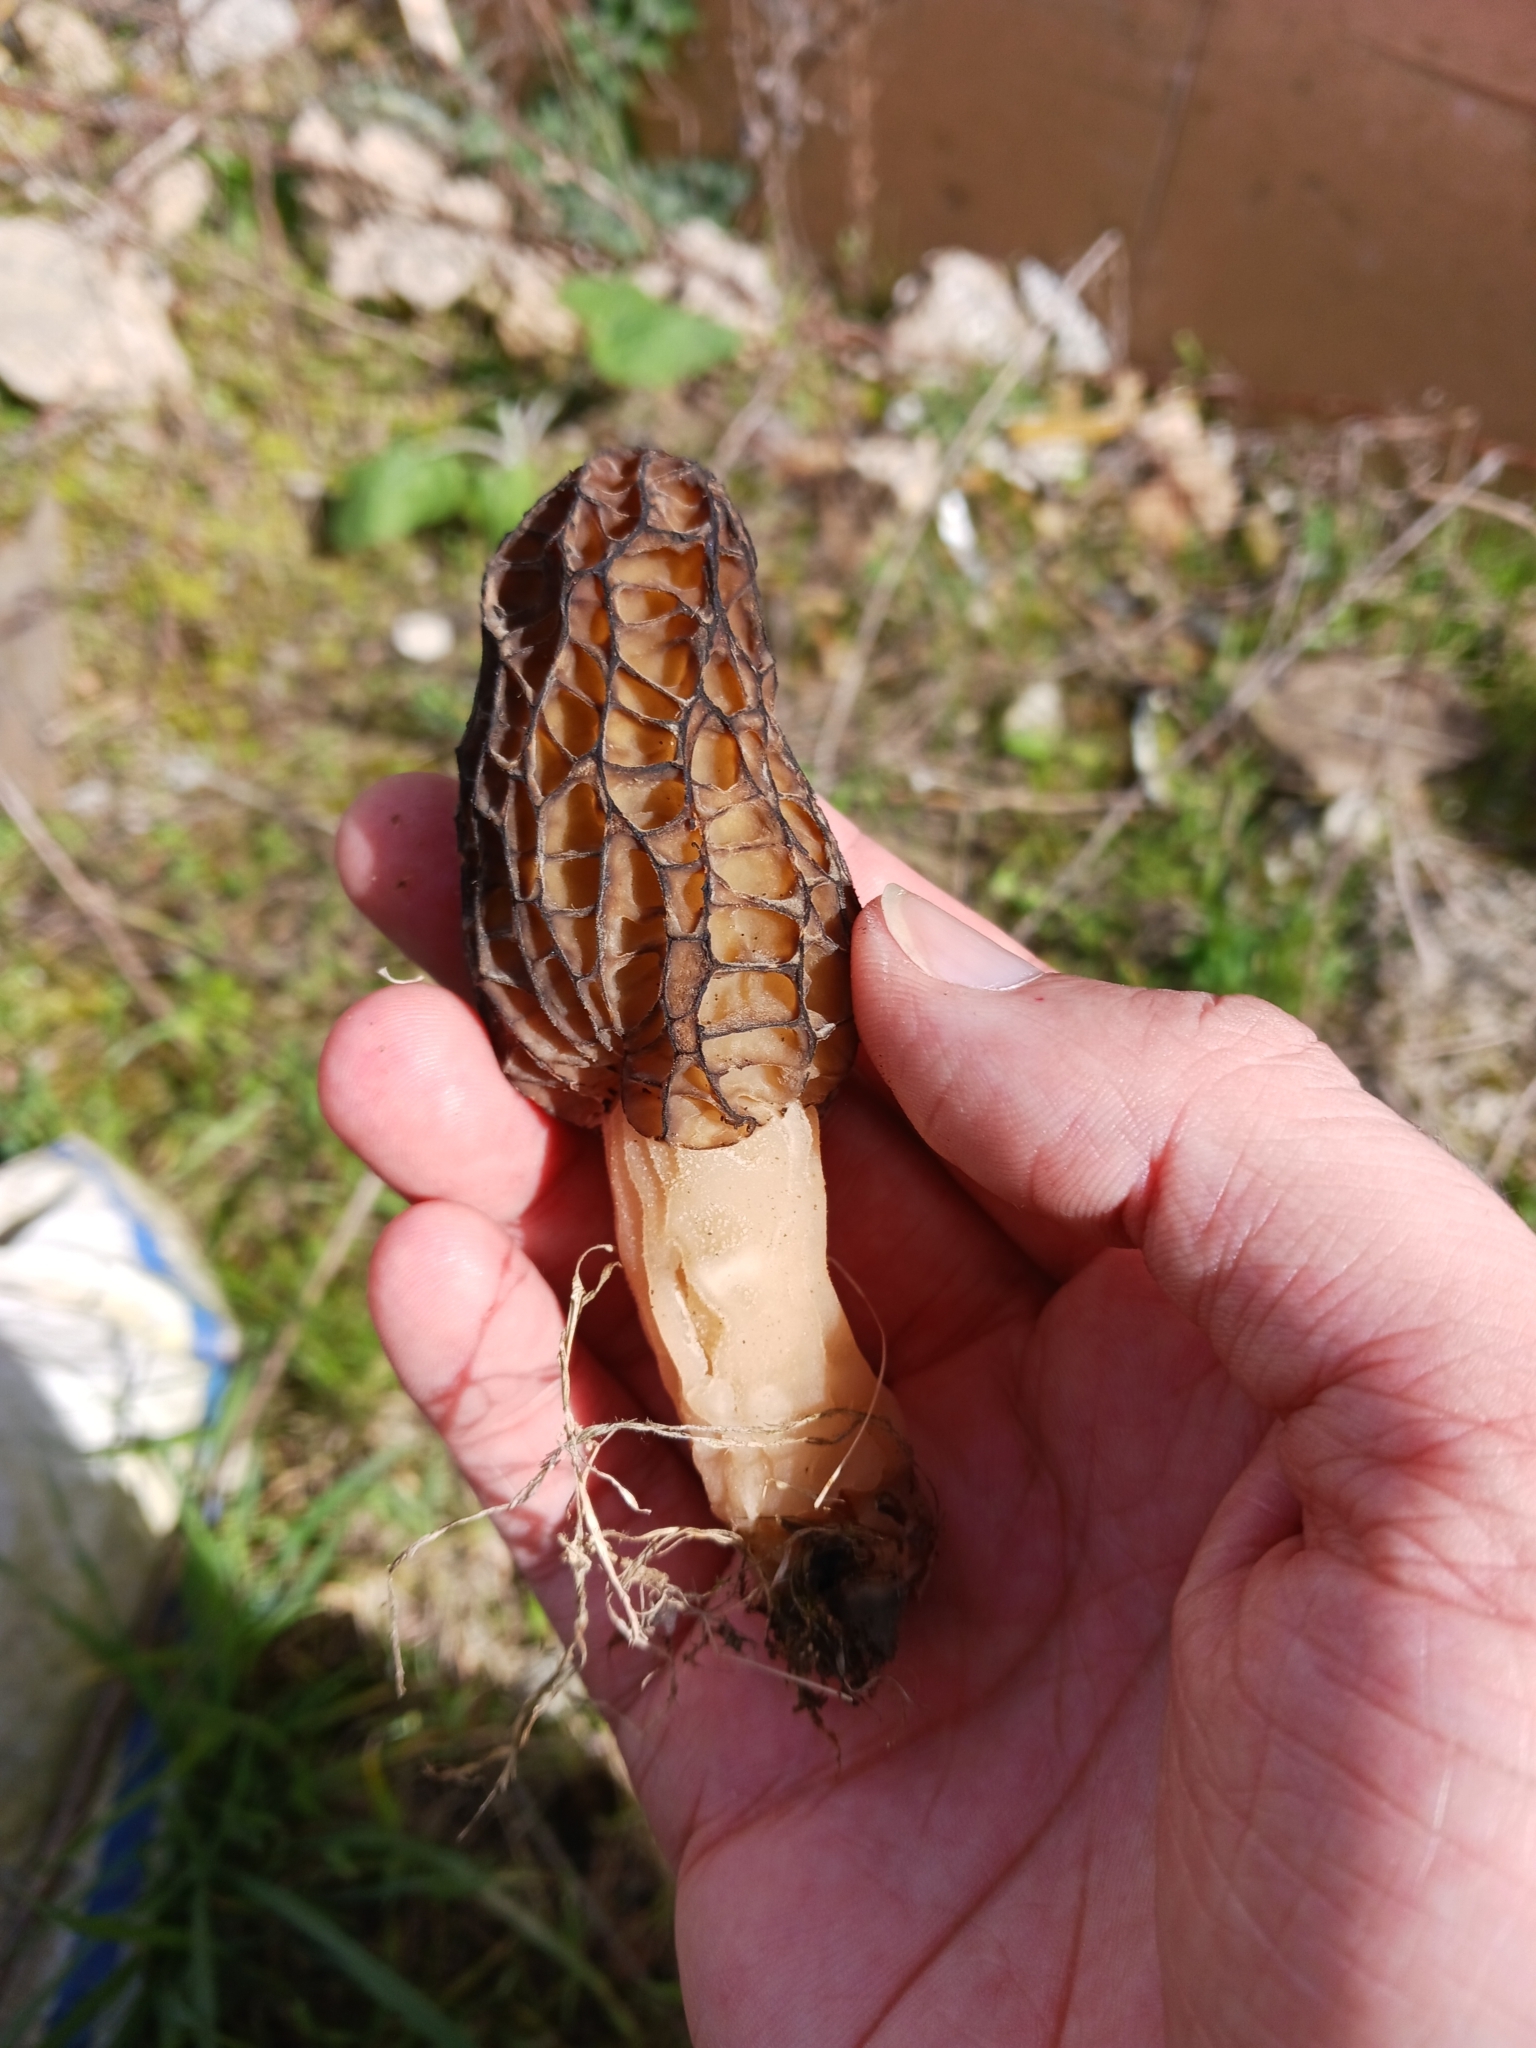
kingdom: Fungi
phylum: Ascomycota
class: Pezizomycetes
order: Pezizales
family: Morchellaceae
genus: Morchella
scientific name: Morchella elata
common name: Black morel
